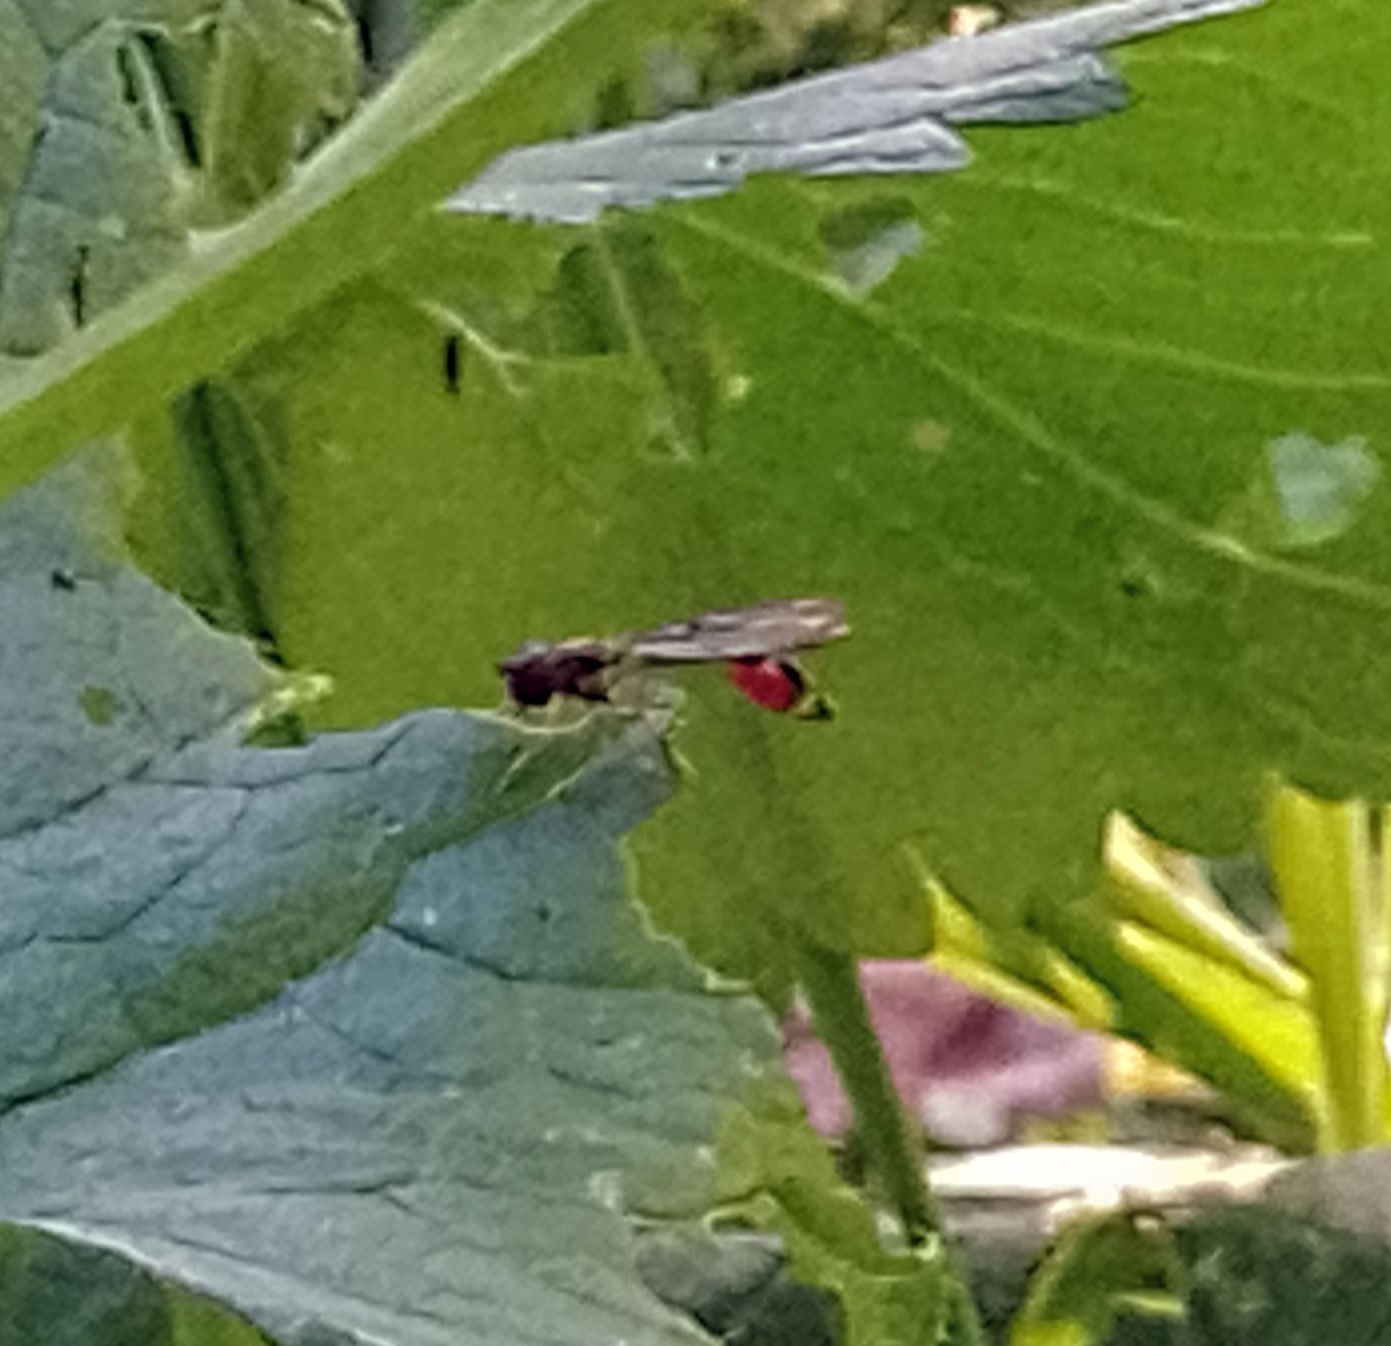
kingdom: Animalia
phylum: Arthropoda
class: Insecta
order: Diptera
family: Syrphidae
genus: Baccha
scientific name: Baccha elongata
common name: Common dainty
